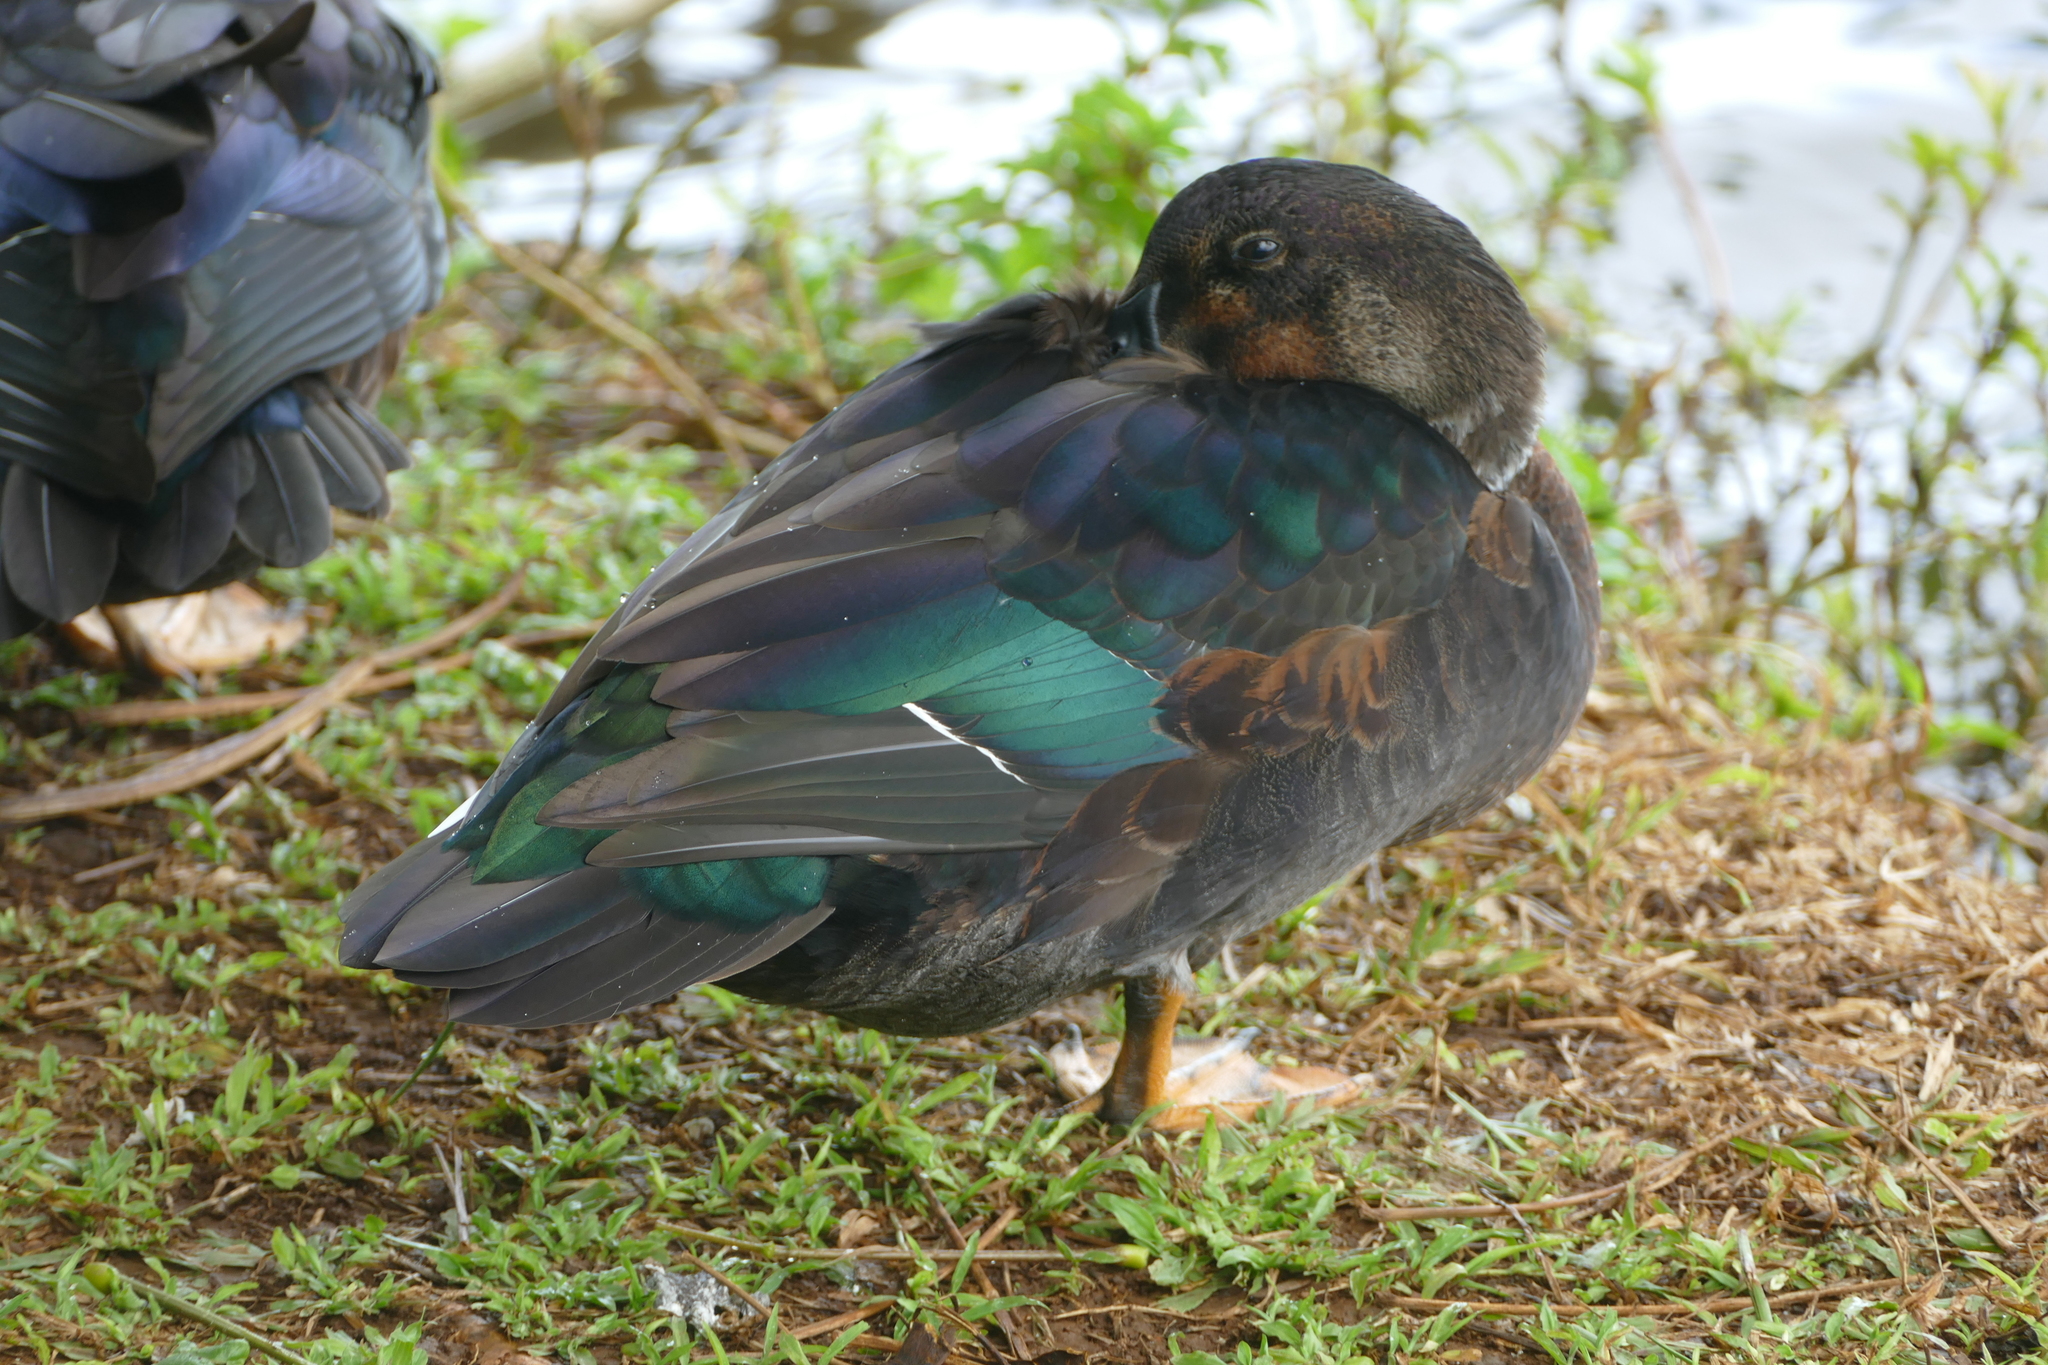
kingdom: Animalia
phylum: Chordata
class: Aves
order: Anseriformes
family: Anatidae
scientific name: Anatidae
